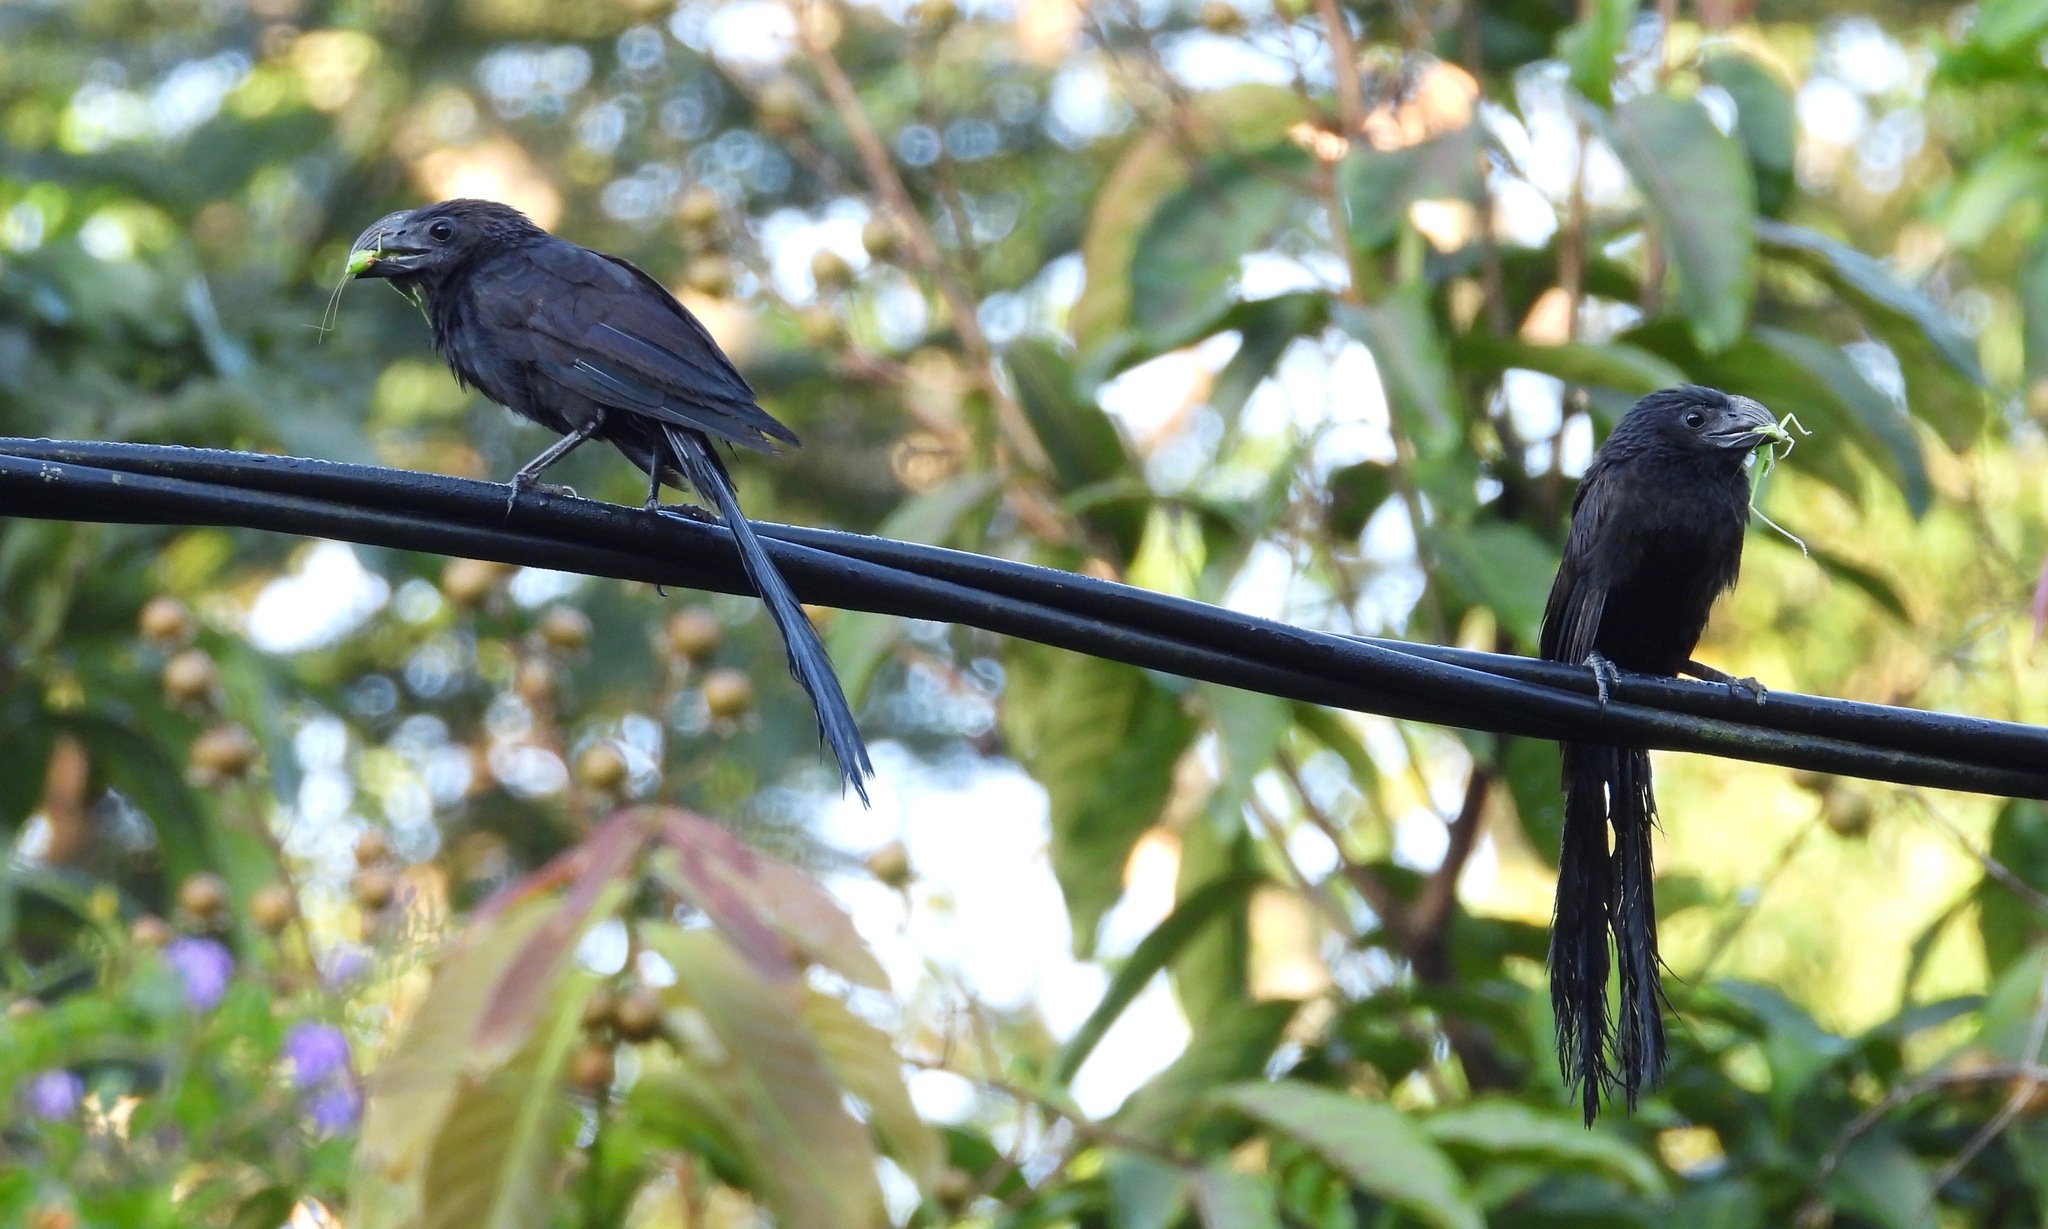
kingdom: Animalia
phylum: Chordata
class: Aves
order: Cuculiformes
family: Cuculidae
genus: Crotophaga
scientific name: Crotophaga sulcirostris
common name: Groove-billed ani
